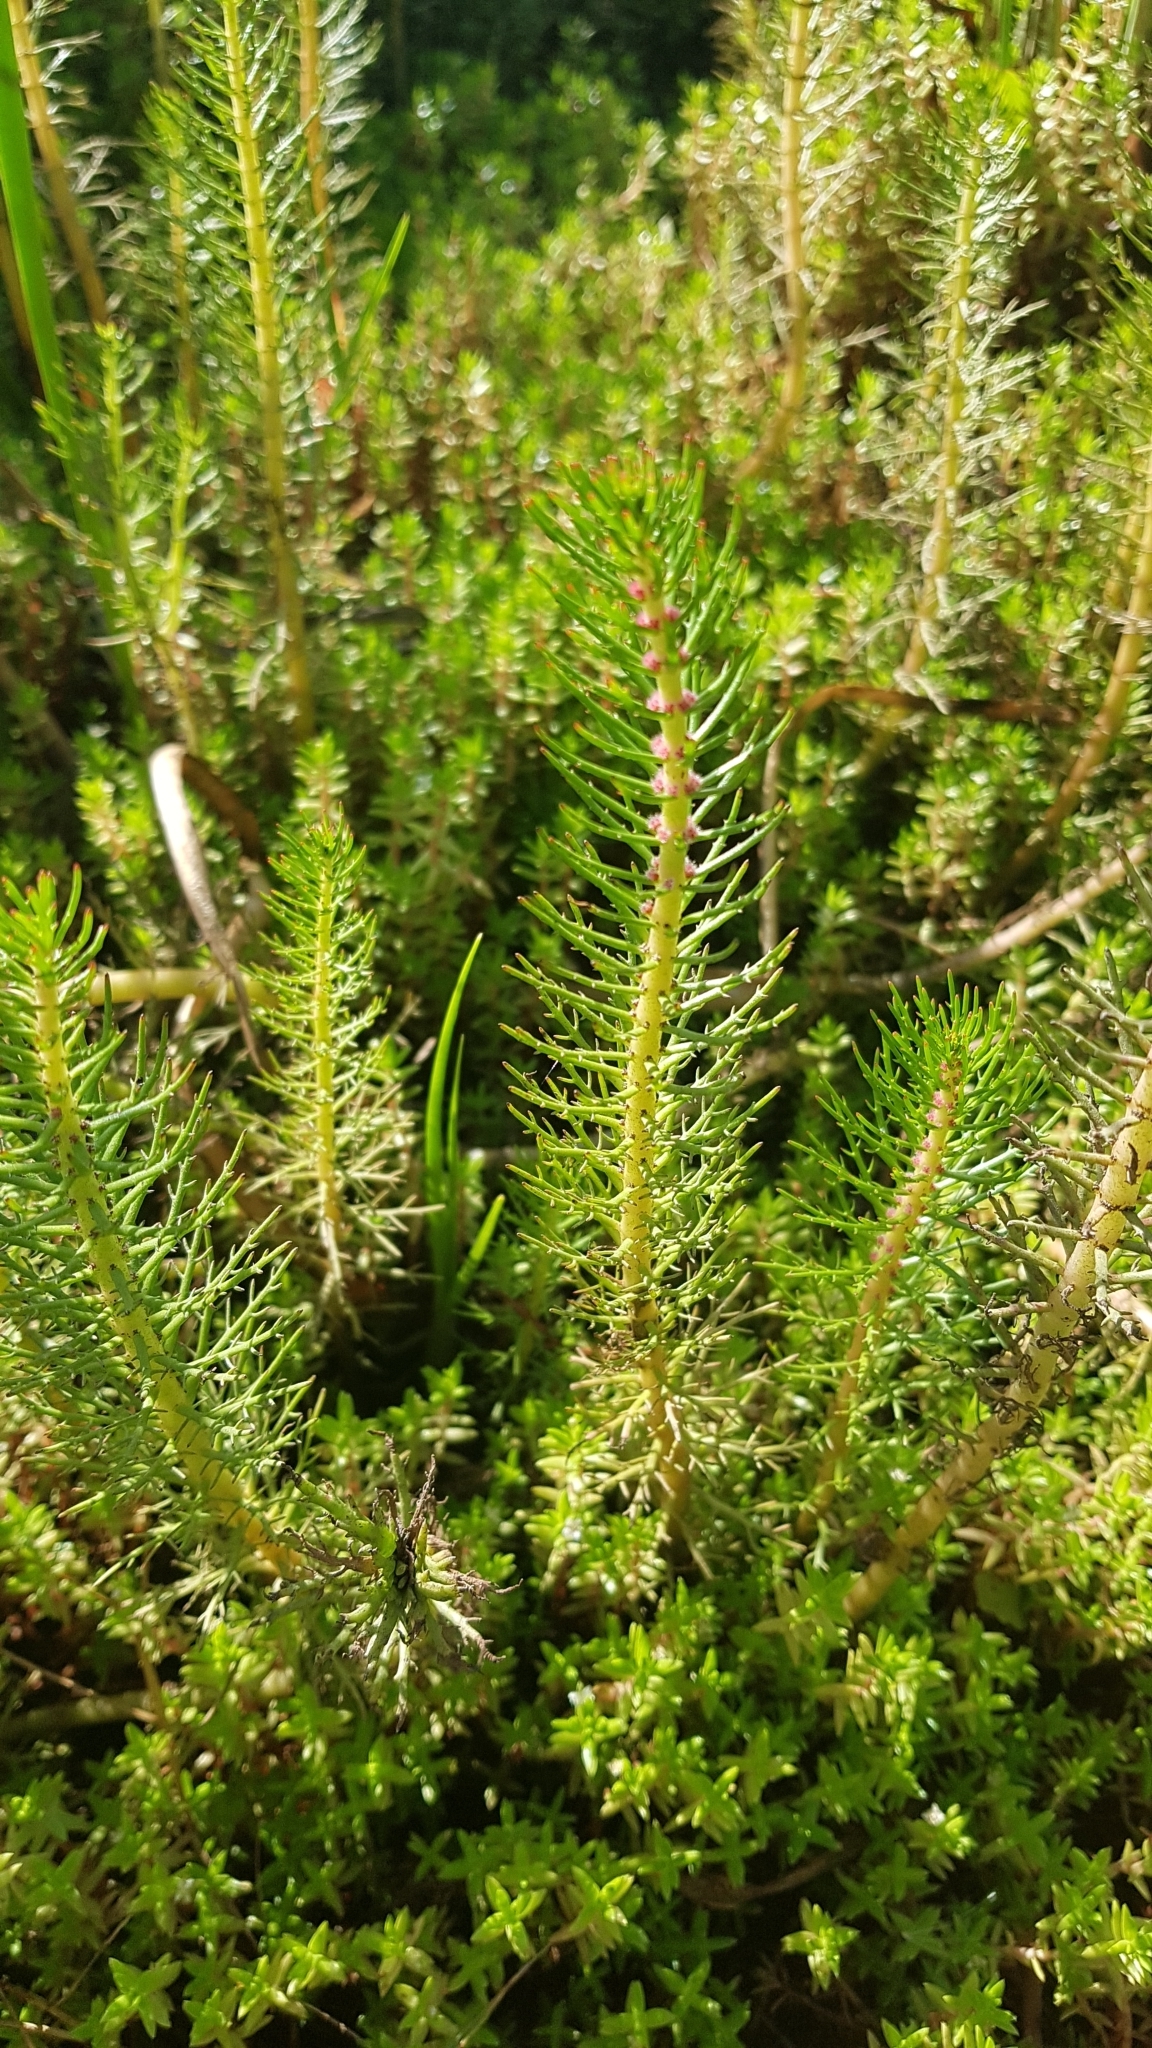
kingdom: Plantae
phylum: Tracheophyta
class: Magnoliopsida
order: Saxifragales
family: Haloragaceae
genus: Myriophyllum
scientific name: Myriophyllum crispatum
